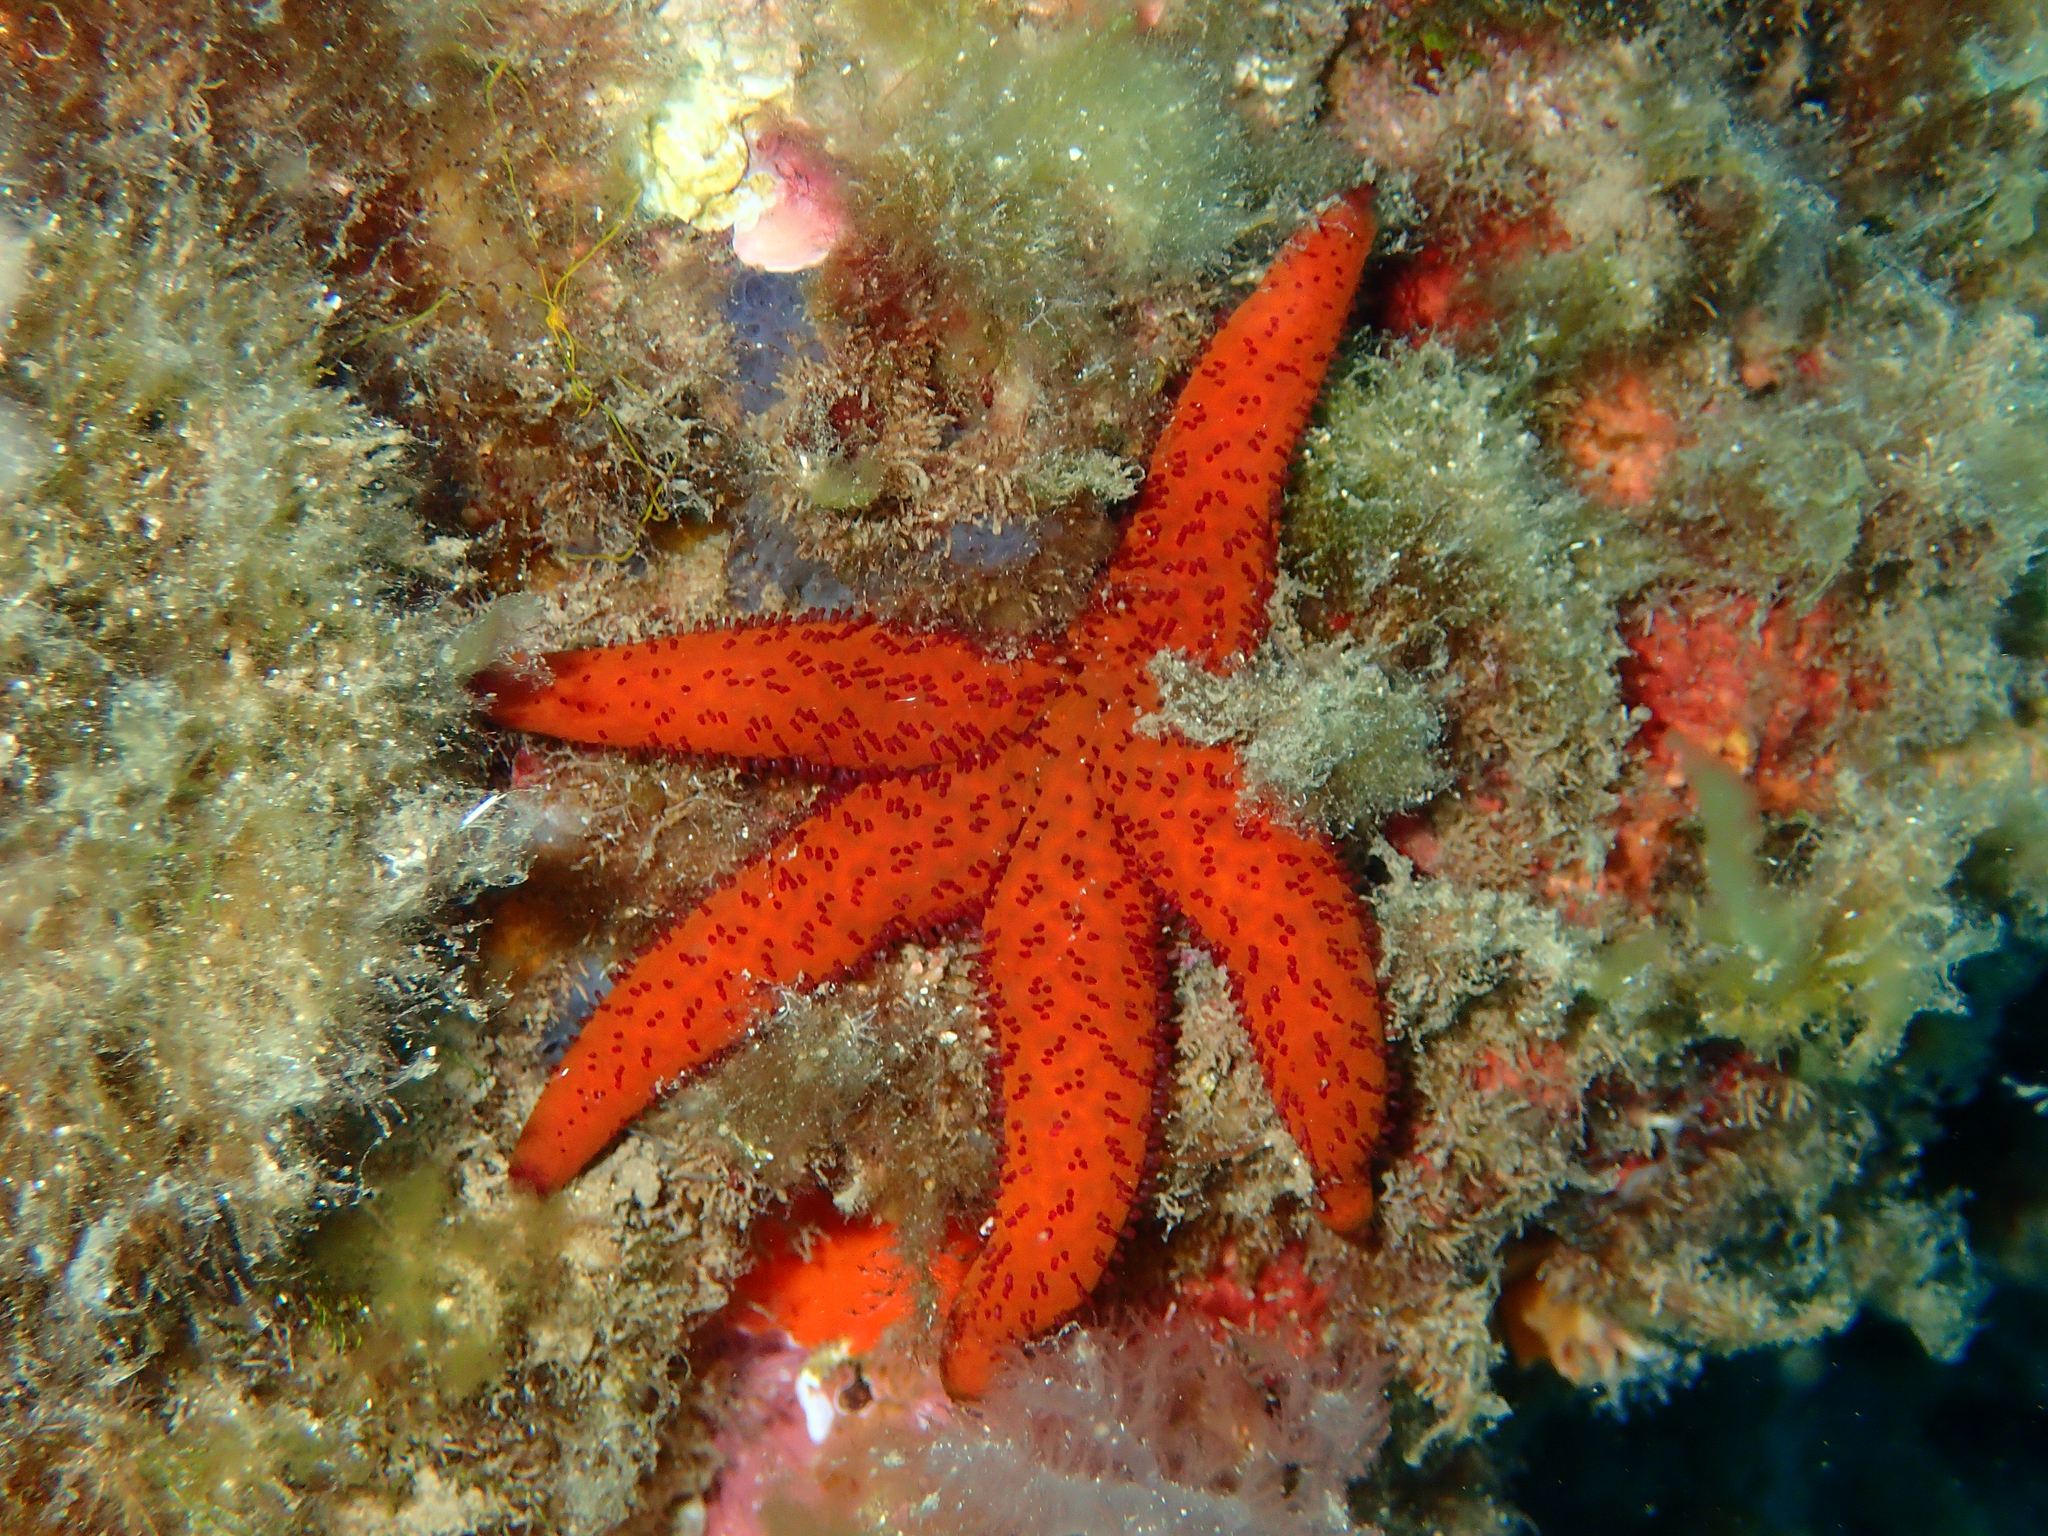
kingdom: Animalia
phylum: Echinodermata
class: Asteroidea
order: Spinulosida
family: Echinasteridae
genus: Echinaster
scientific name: Echinaster sepositus
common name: Red starfish
